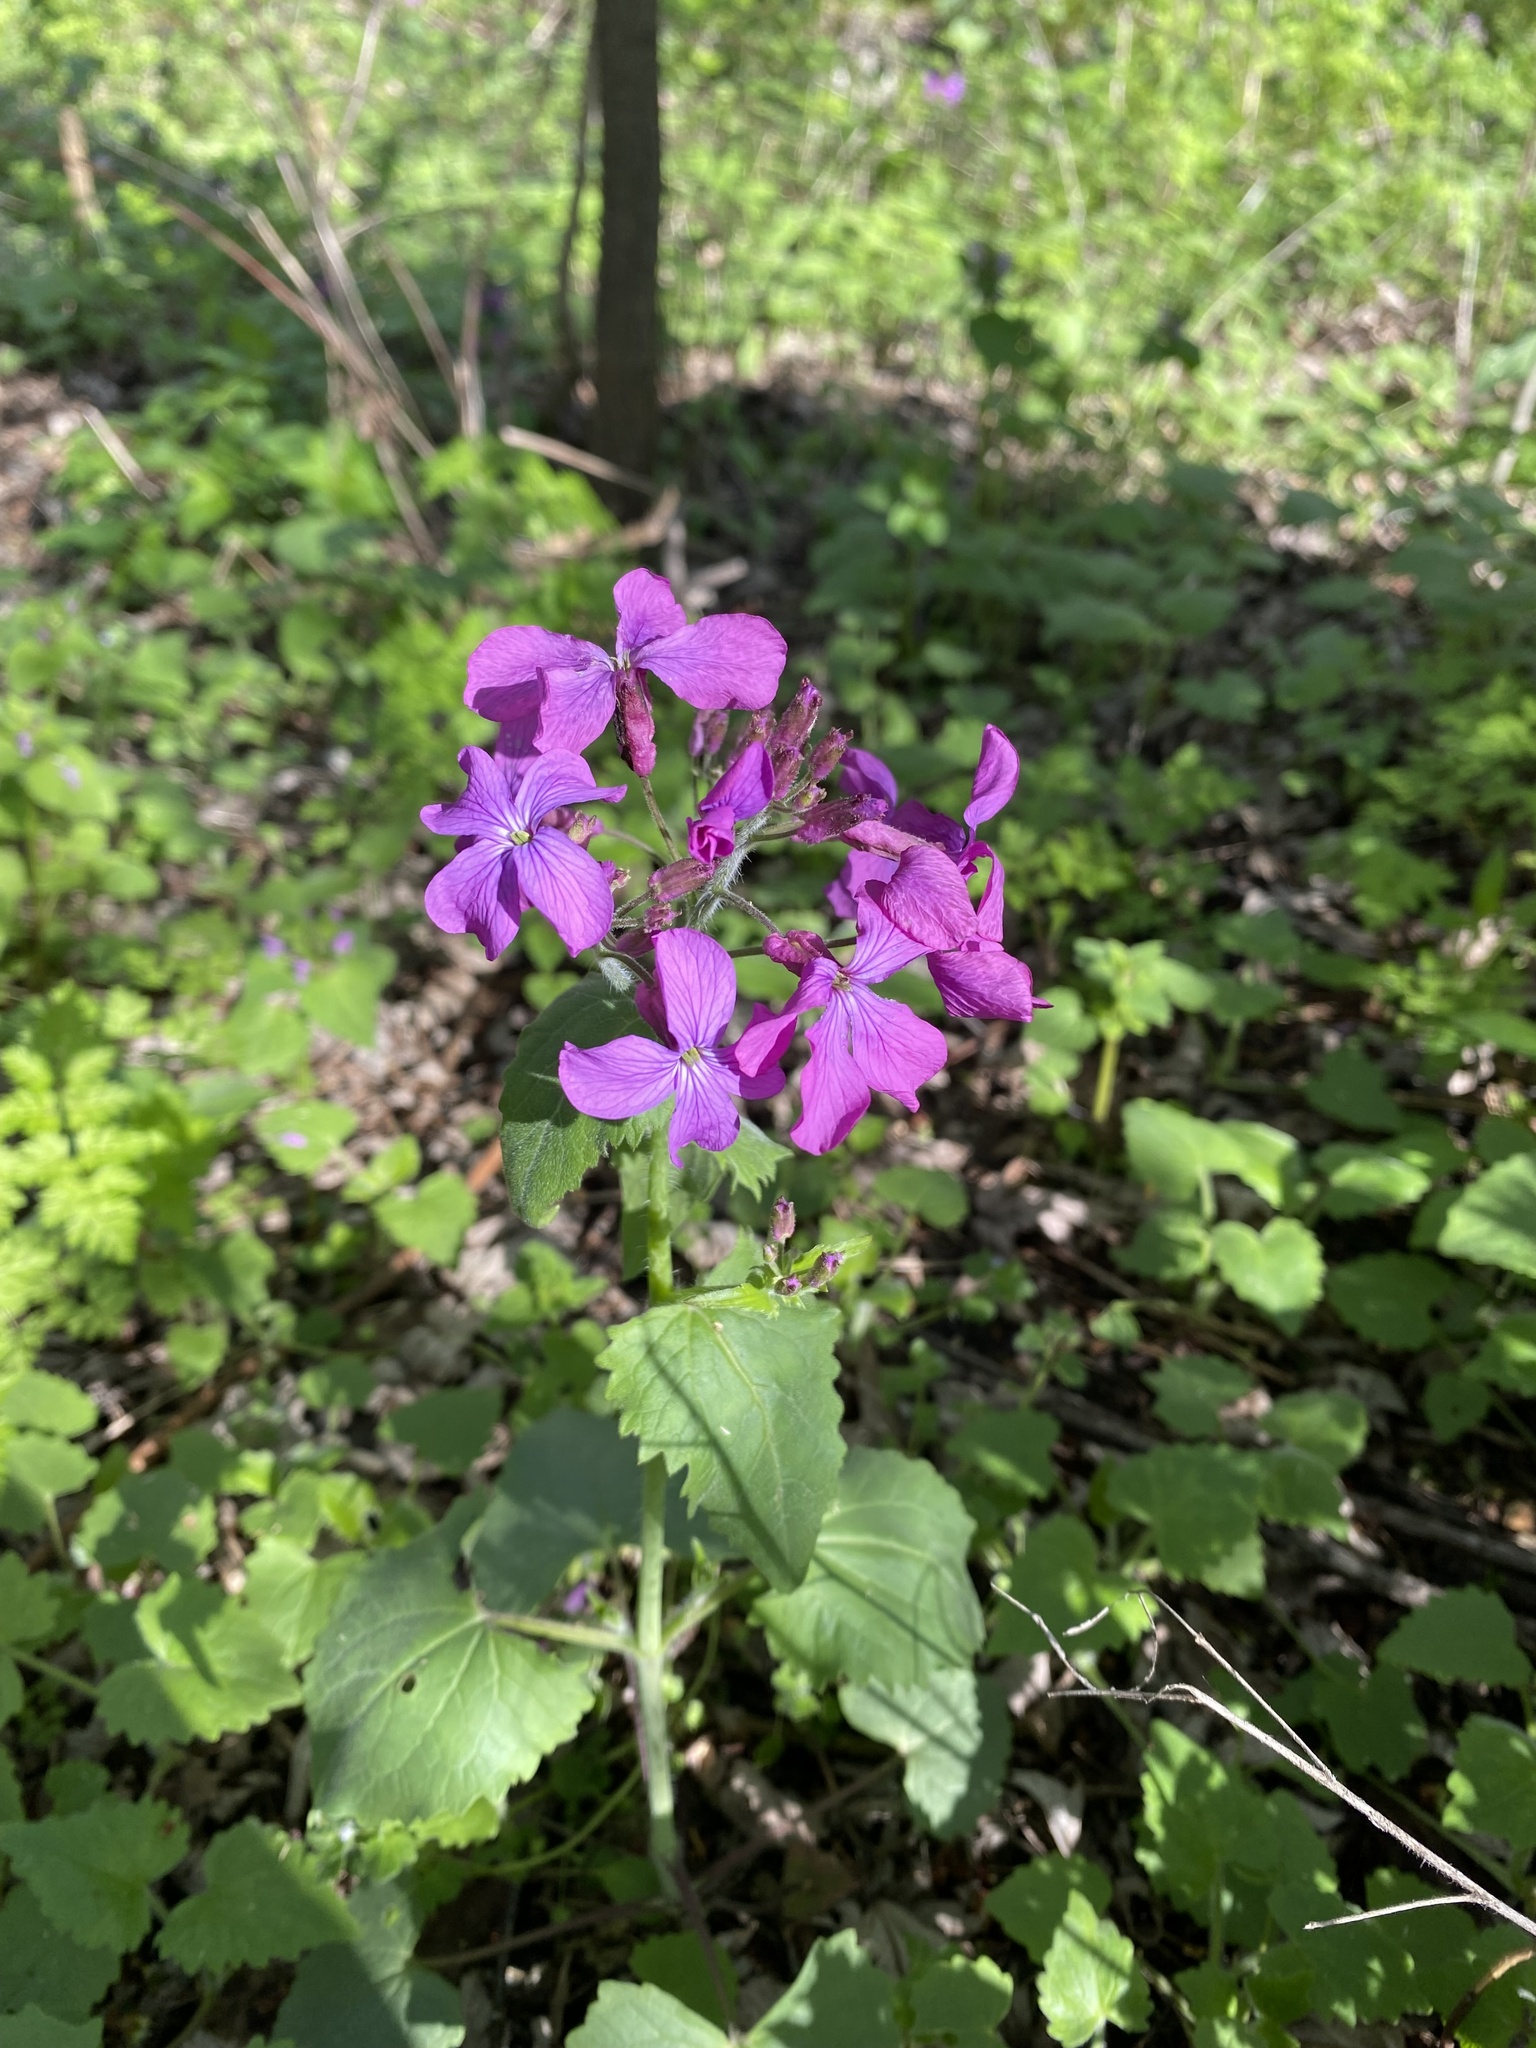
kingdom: Plantae
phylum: Tracheophyta
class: Magnoliopsida
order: Brassicales
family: Brassicaceae
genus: Lunaria
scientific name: Lunaria annua
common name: Honesty
